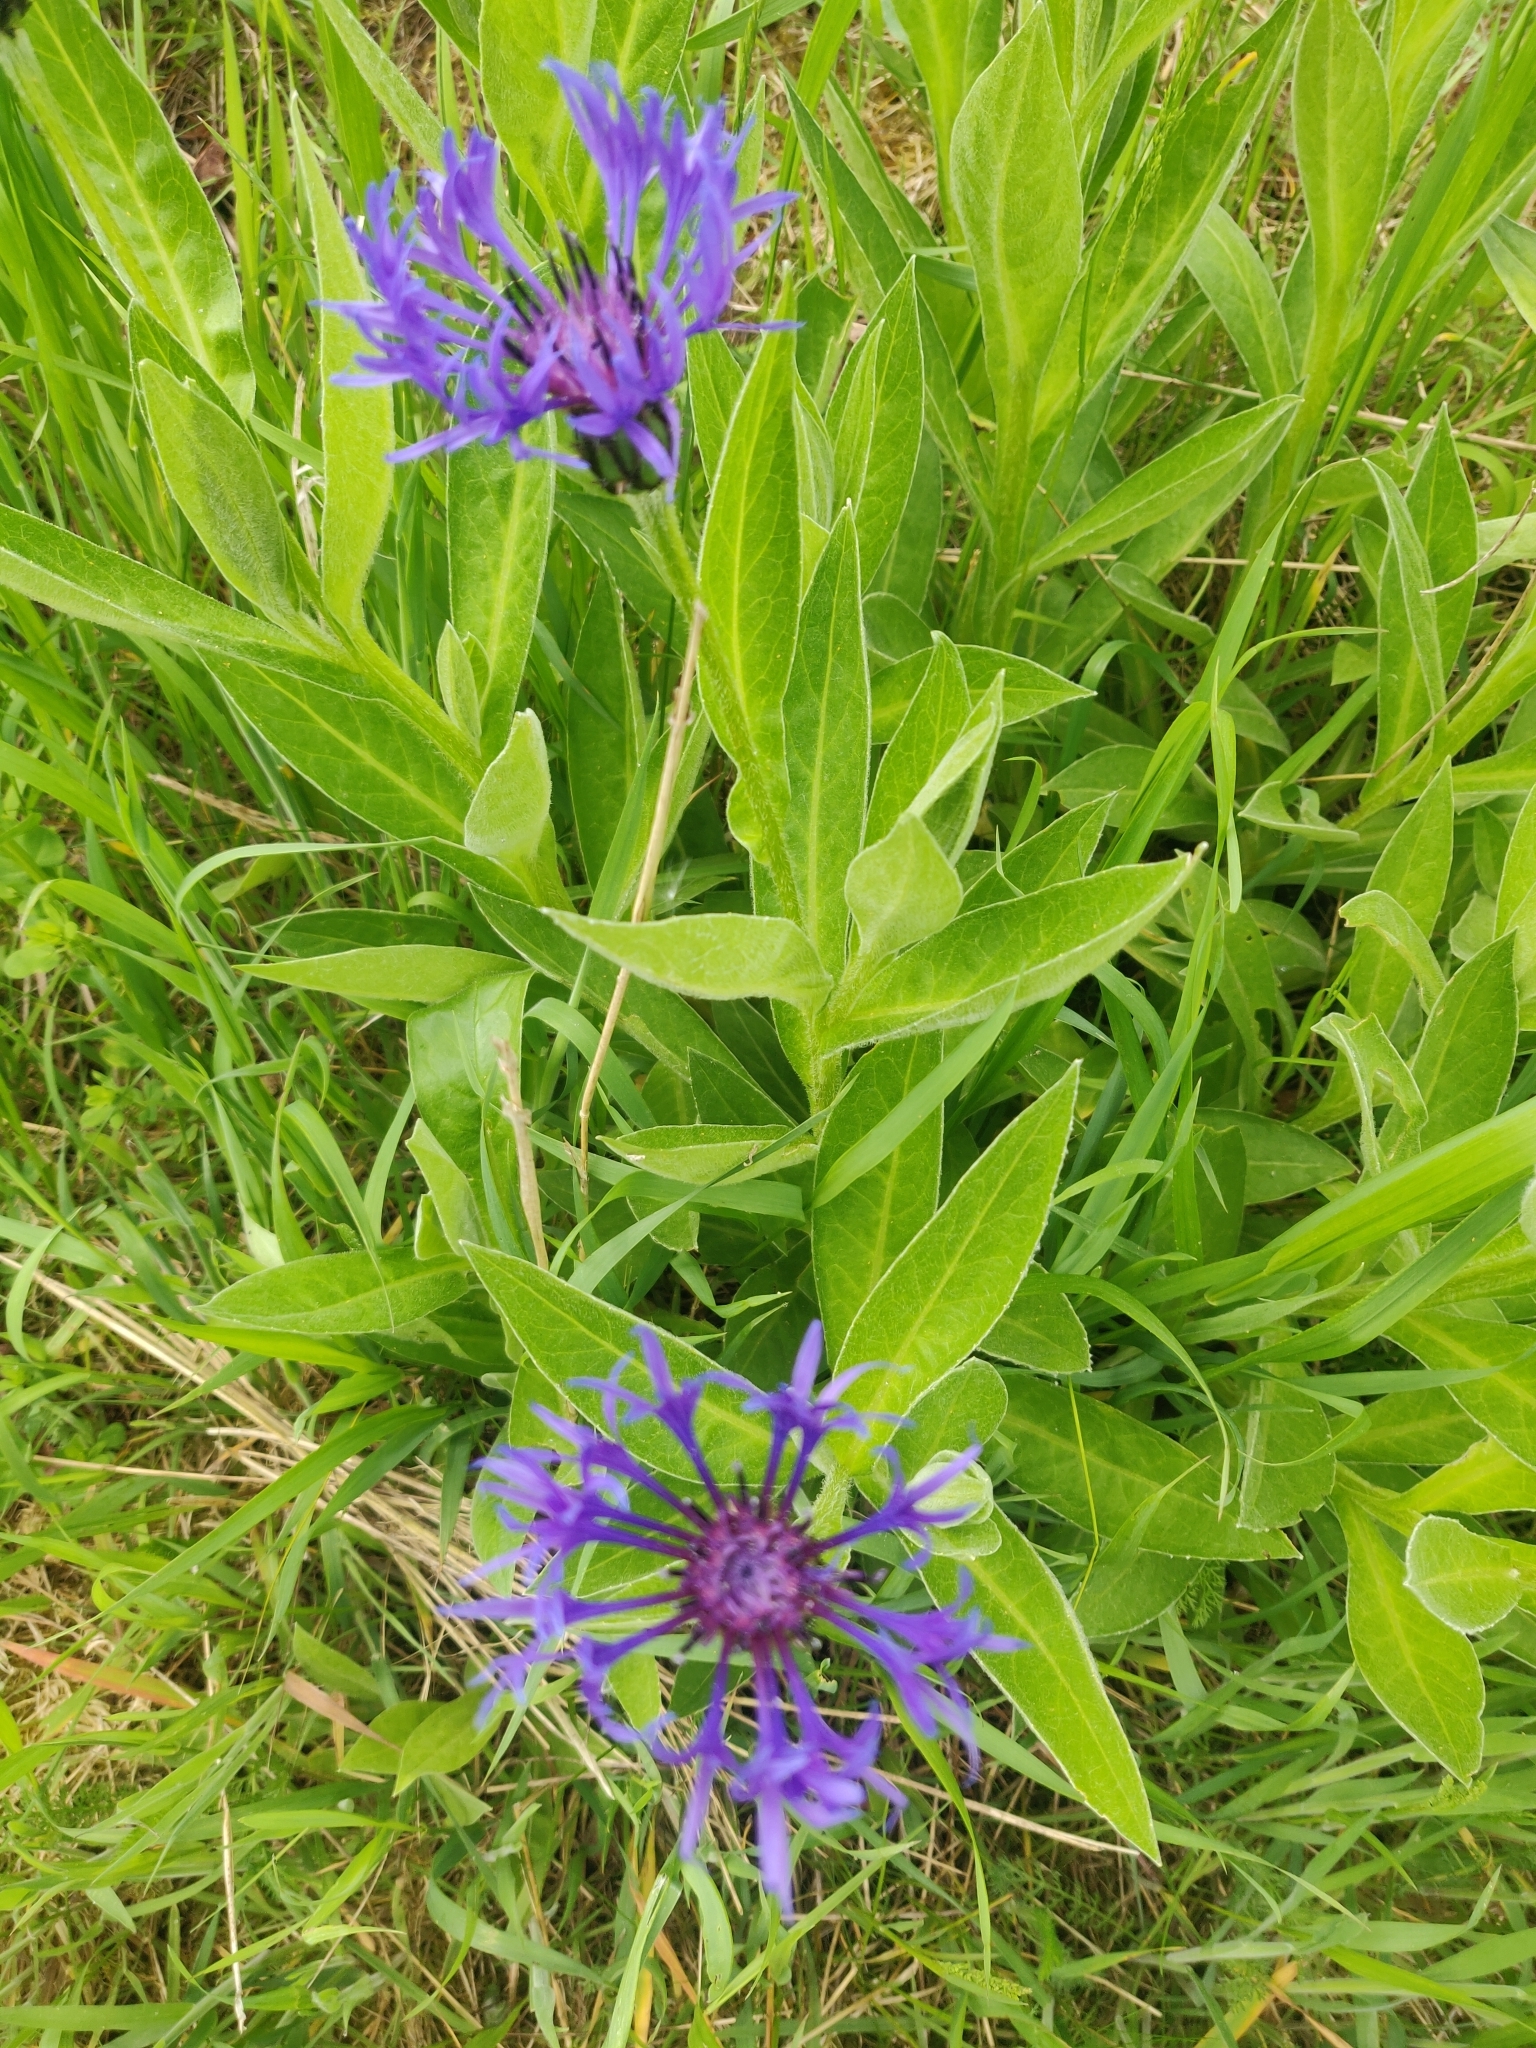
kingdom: Plantae
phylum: Tracheophyta
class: Magnoliopsida
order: Asterales
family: Asteraceae
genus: Centaurea
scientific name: Centaurea montana
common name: Perennial cornflower
